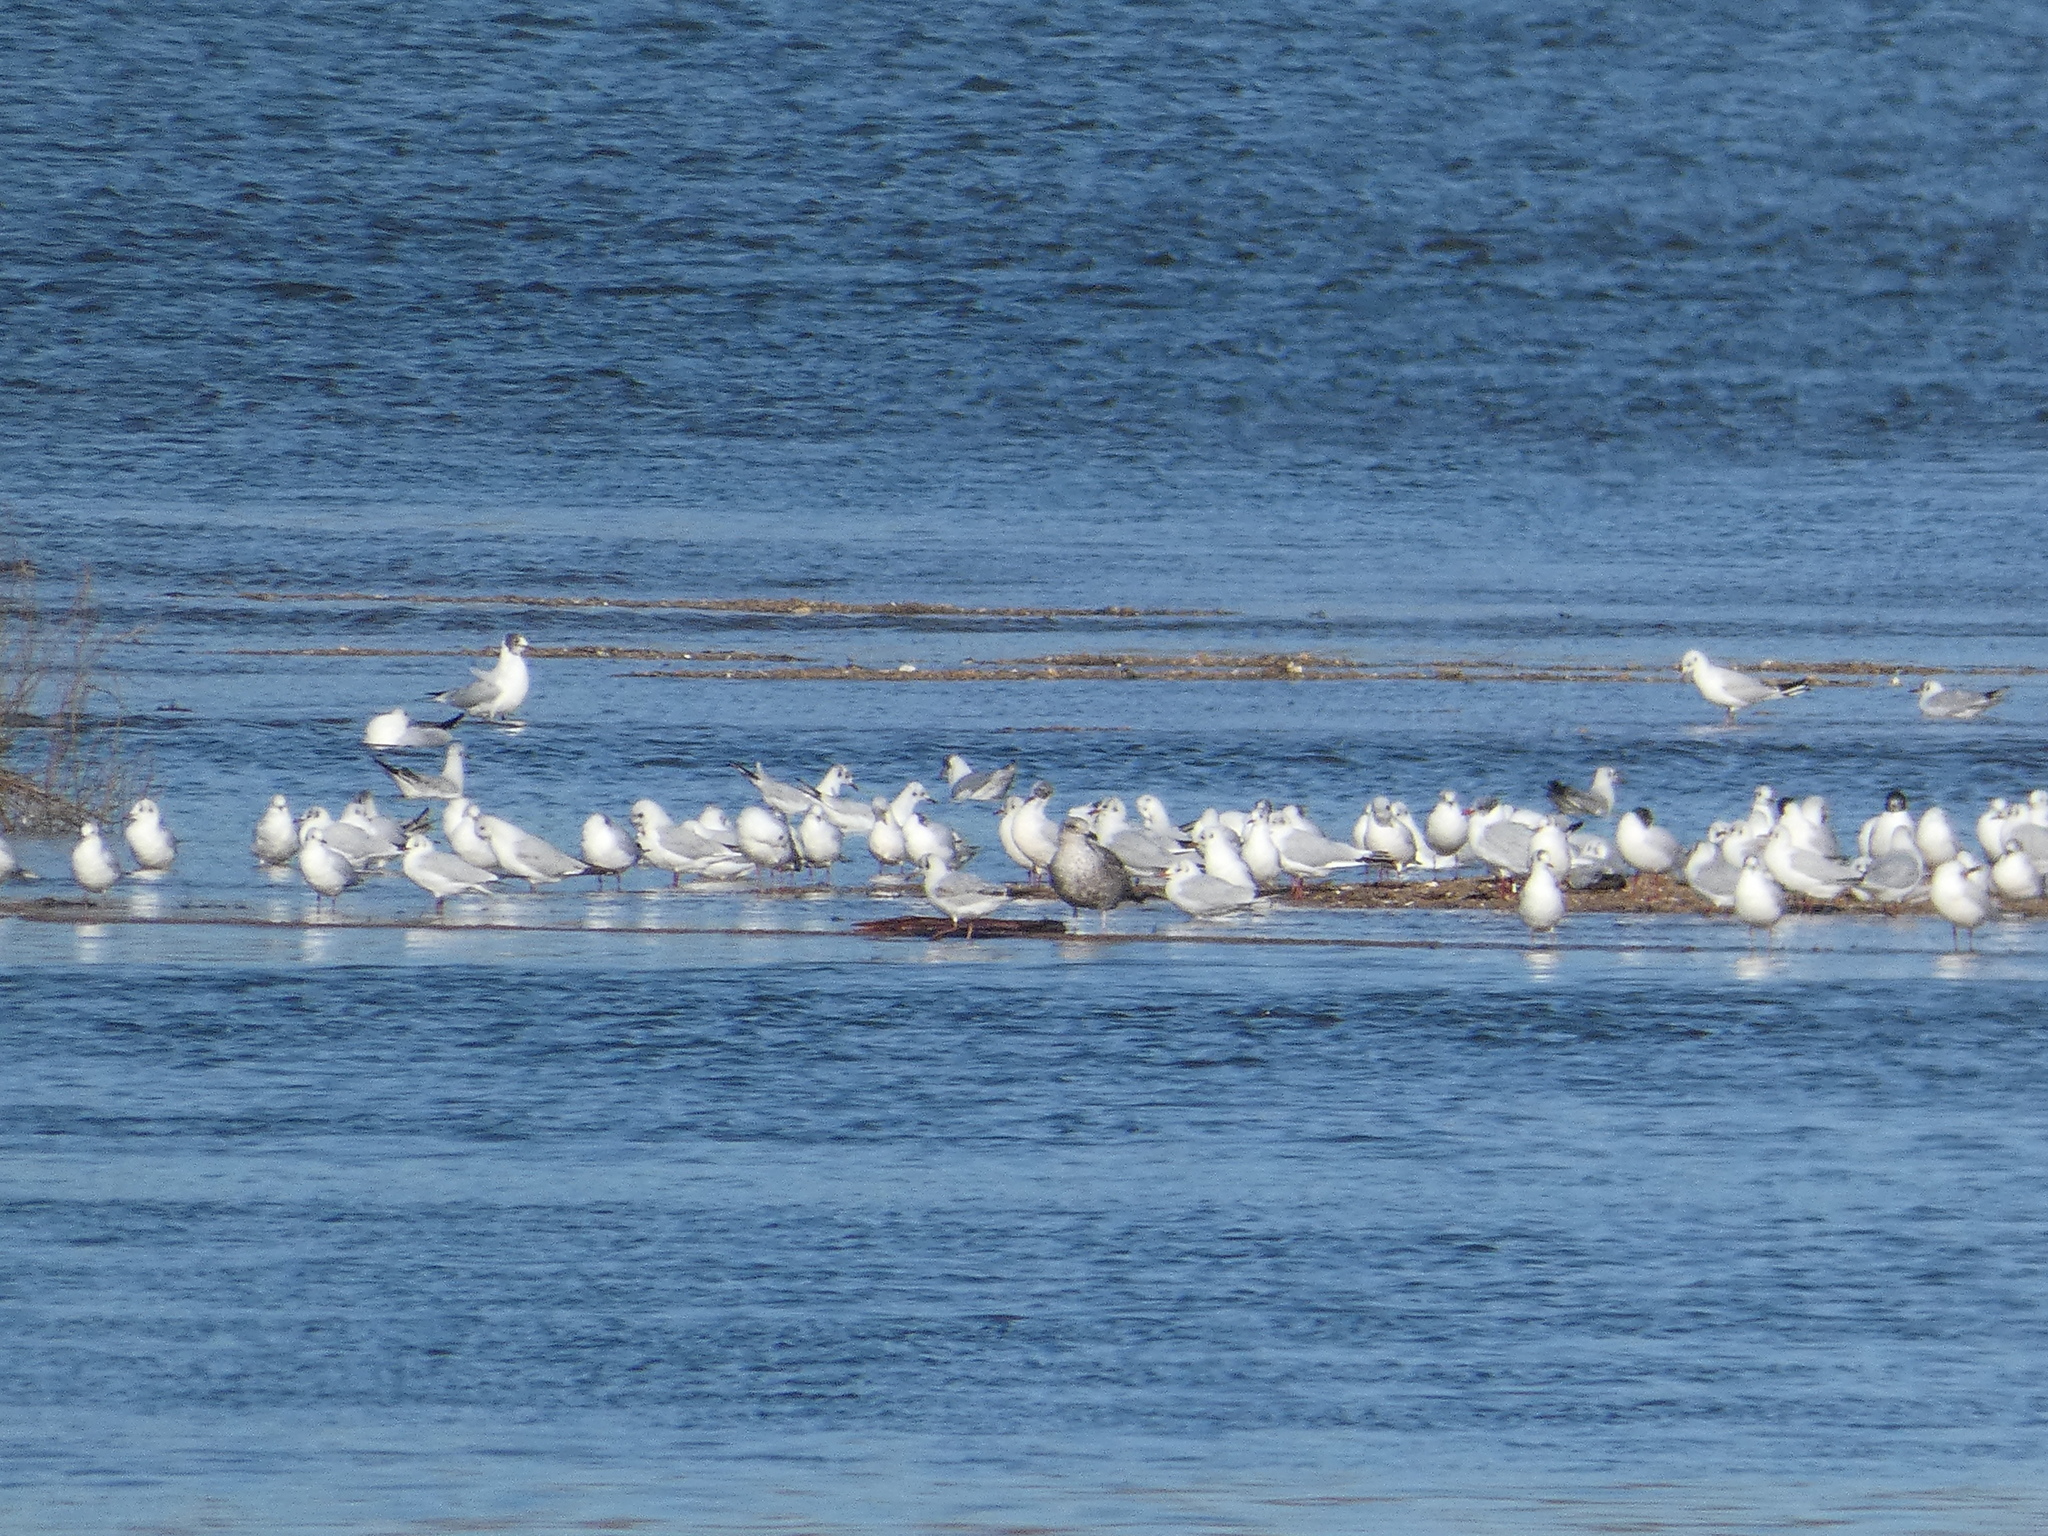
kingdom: Animalia
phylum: Chordata
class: Aves
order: Charadriiformes
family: Laridae
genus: Chroicocephalus
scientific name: Chroicocephalus ridibundus
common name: Black-headed gull
